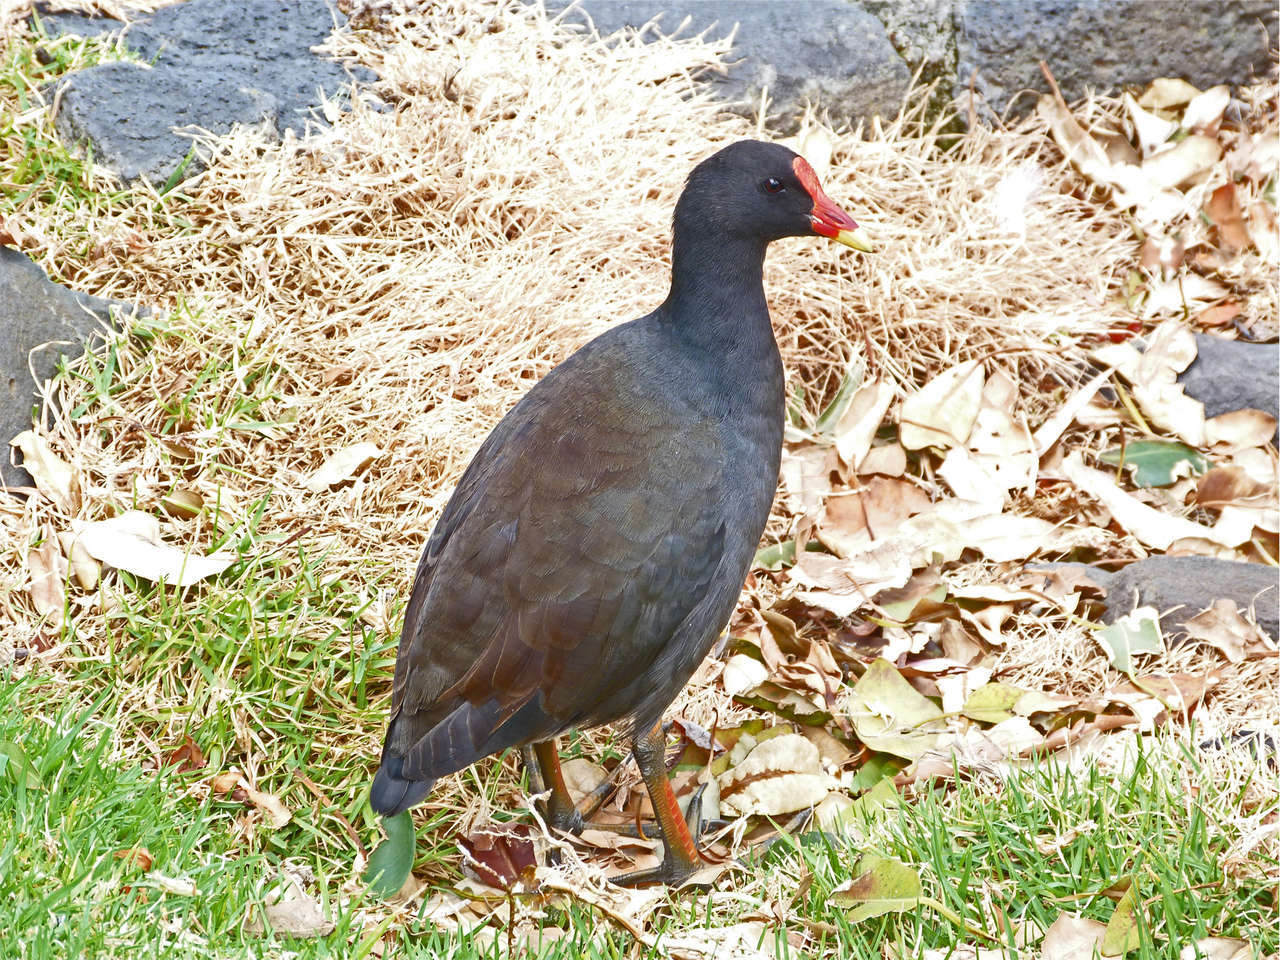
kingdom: Animalia
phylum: Chordata
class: Aves
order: Gruiformes
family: Rallidae
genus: Gallinula
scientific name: Gallinula tenebrosa
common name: Dusky moorhen
